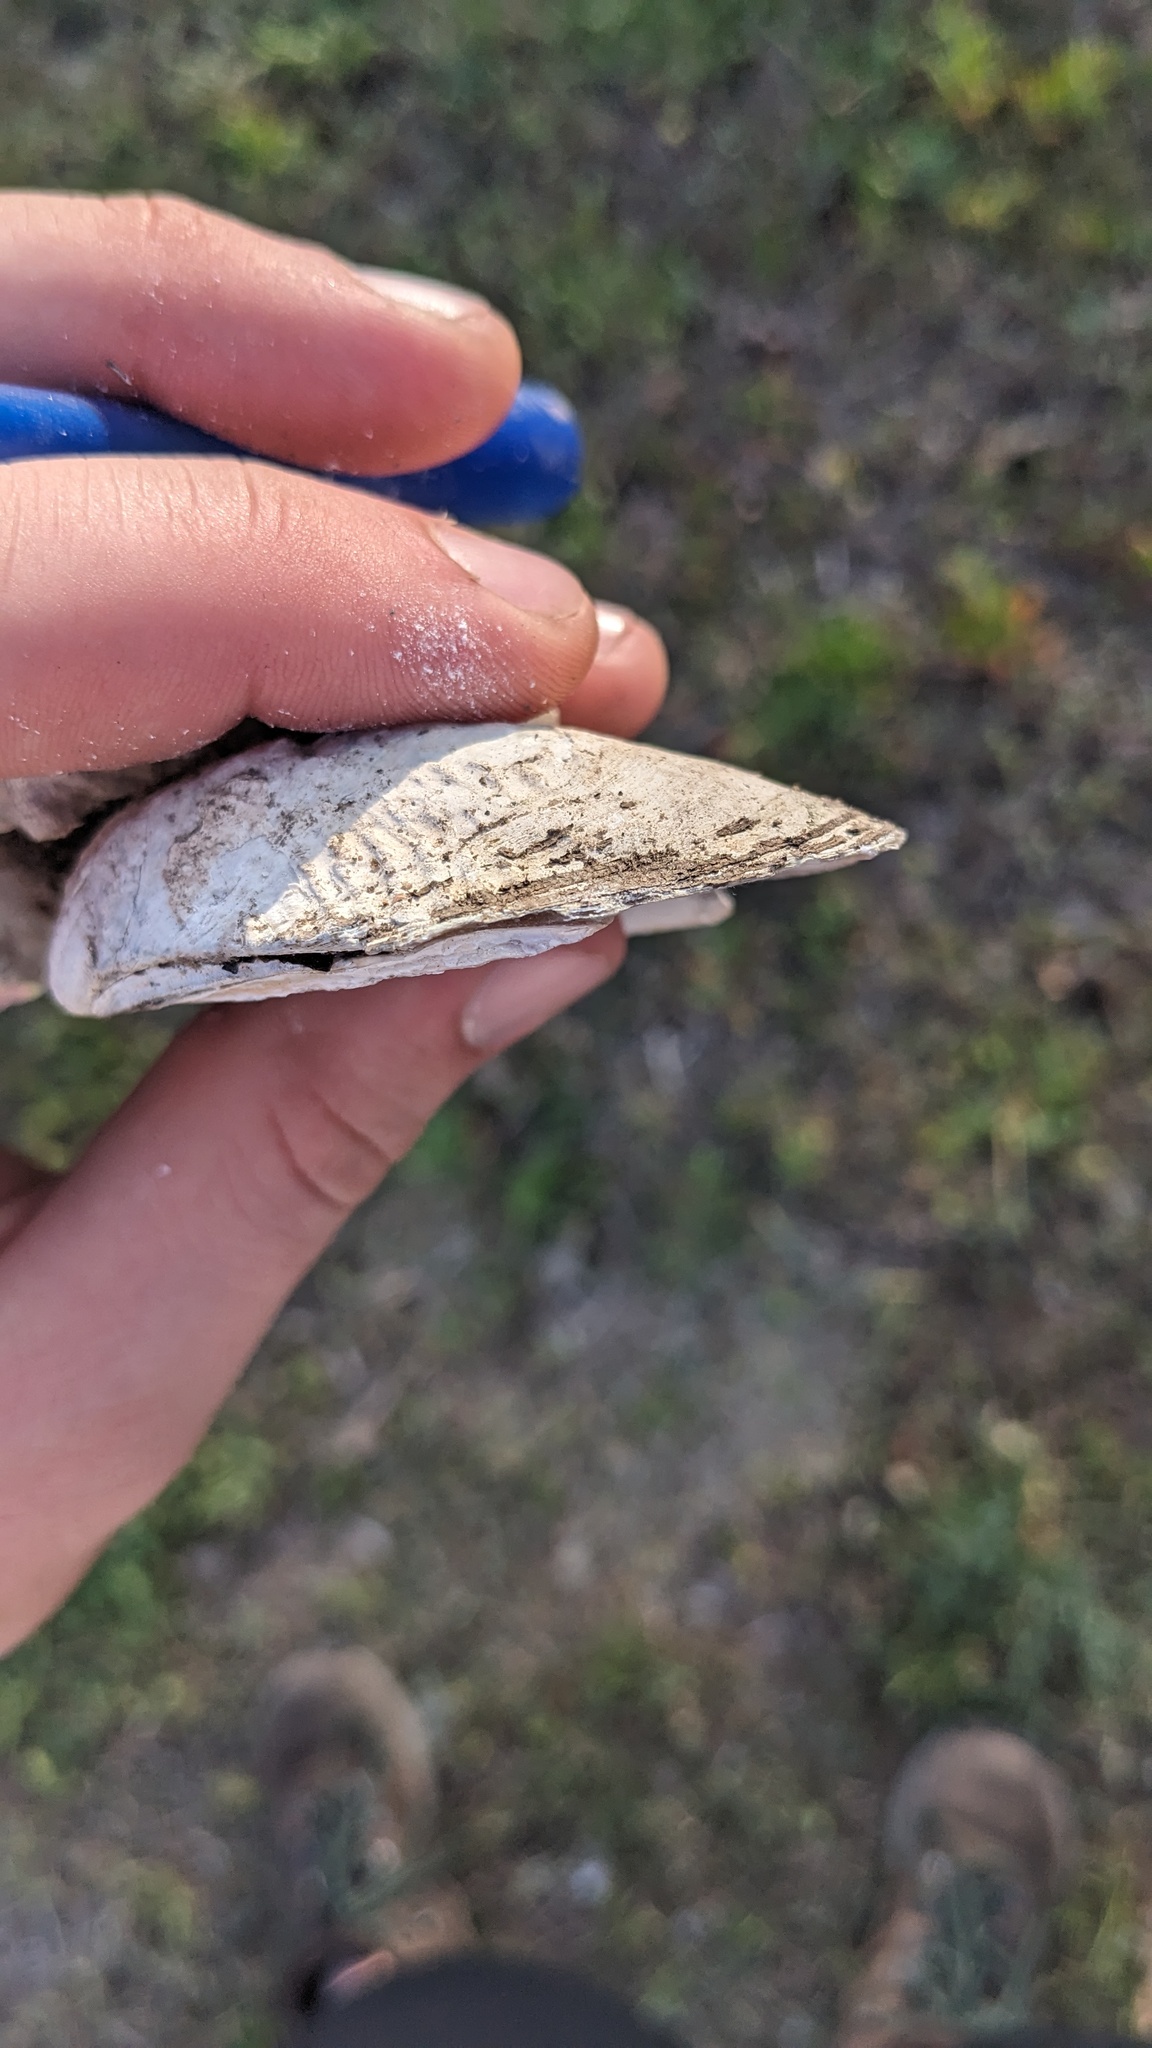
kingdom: Animalia
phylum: Mollusca
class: Bivalvia
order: Unionida
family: Unionidae
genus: Quadrula
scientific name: Quadrula quadrula
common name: Mapleleaf
